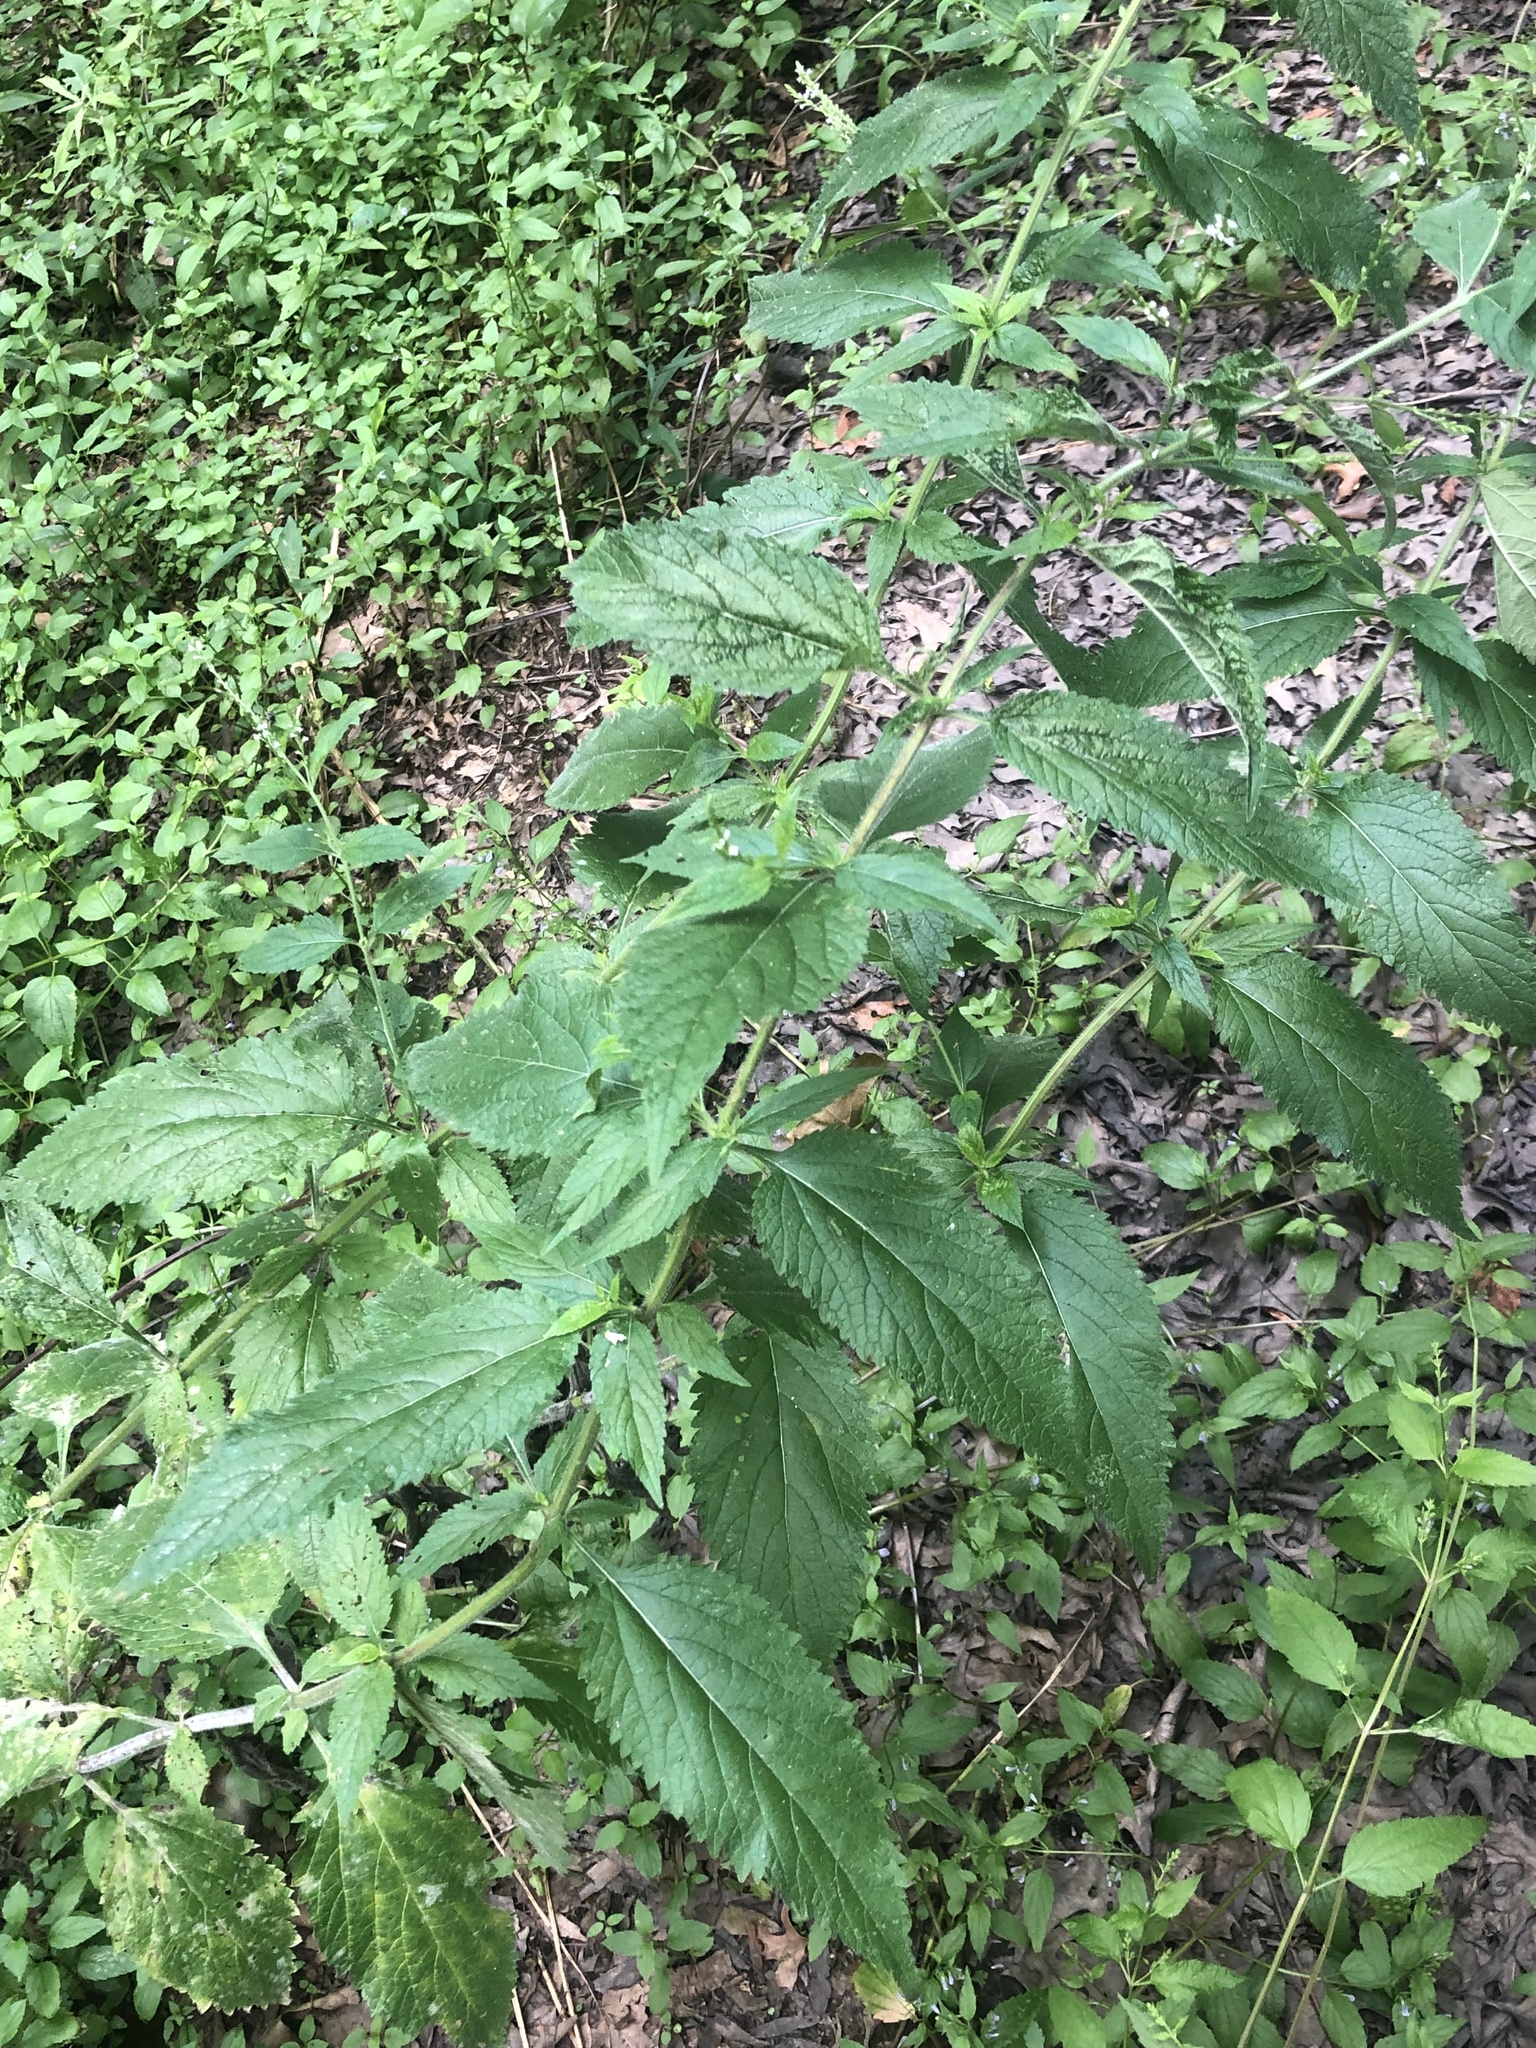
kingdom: Plantae
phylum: Tracheophyta
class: Magnoliopsida
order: Lamiales
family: Verbenaceae
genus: Verbena
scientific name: Verbena urticifolia
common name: Nettle-leaved vervain
